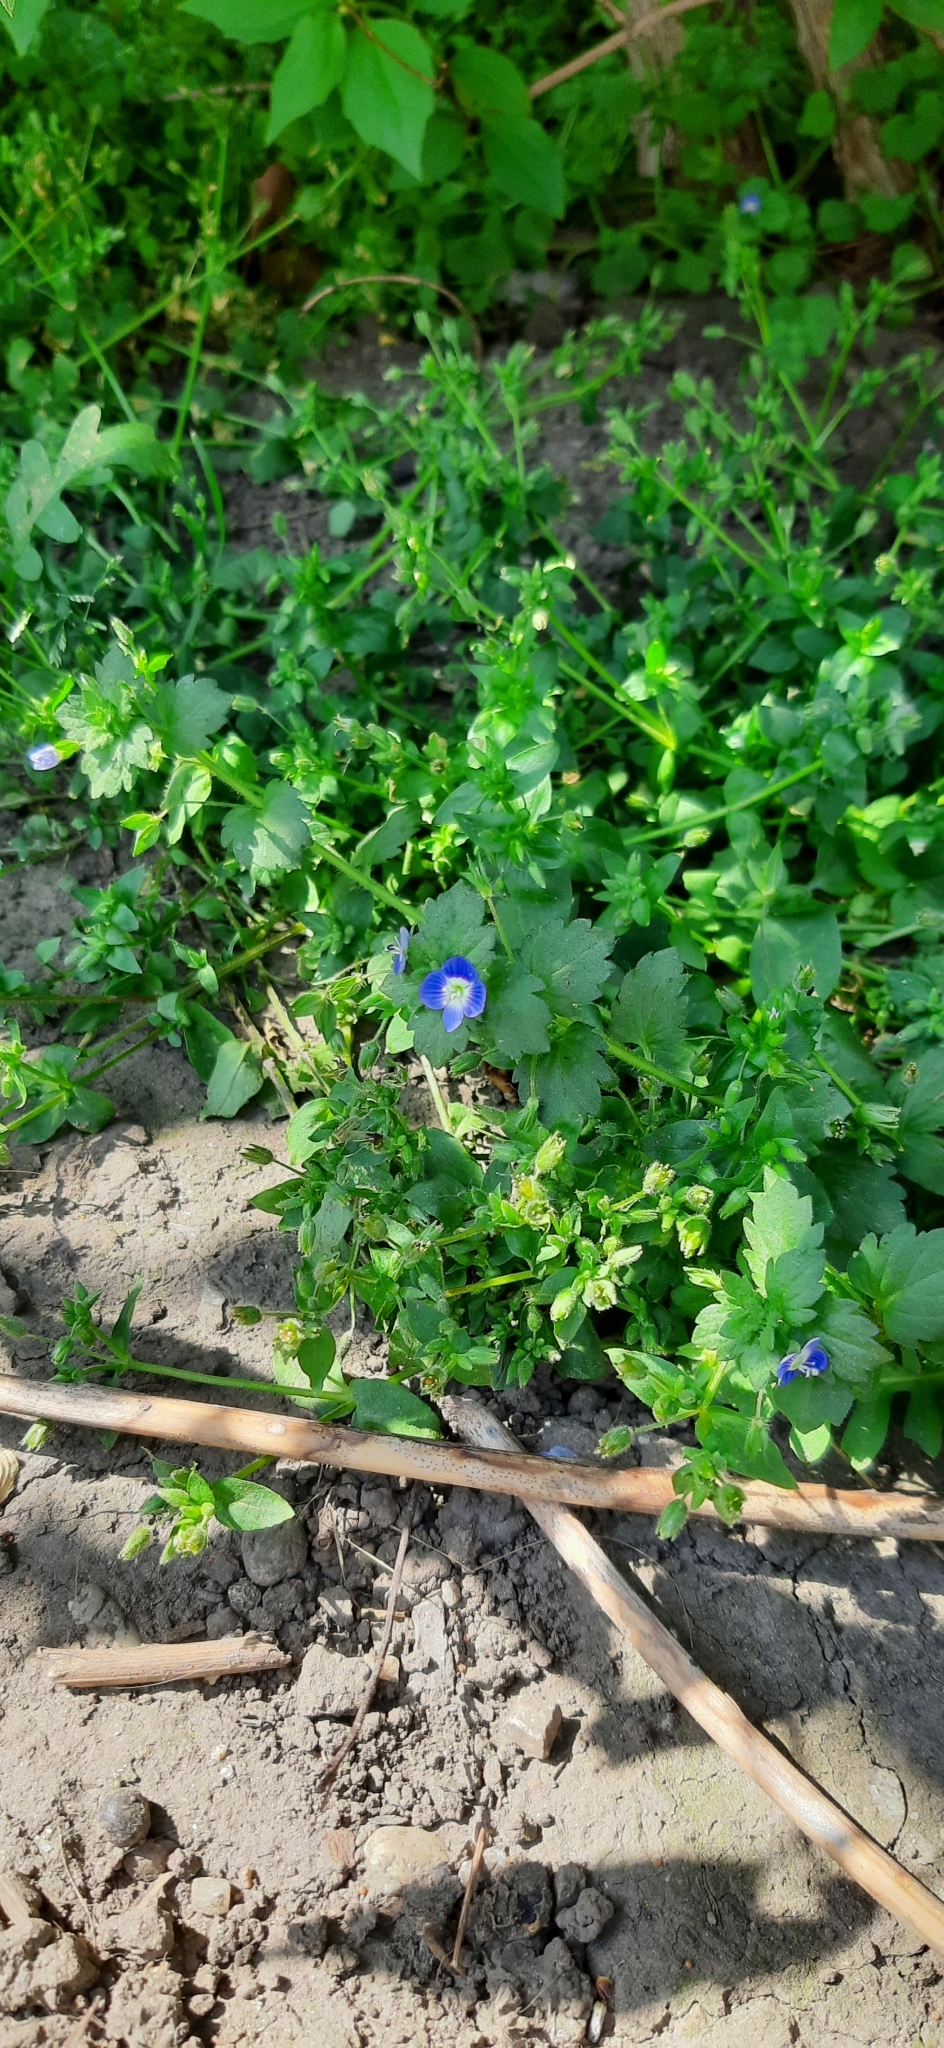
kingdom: Plantae
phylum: Tracheophyta
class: Magnoliopsida
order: Lamiales
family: Plantaginaceae
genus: Veronica
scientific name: Veronica persica
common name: Common field-speedwell
